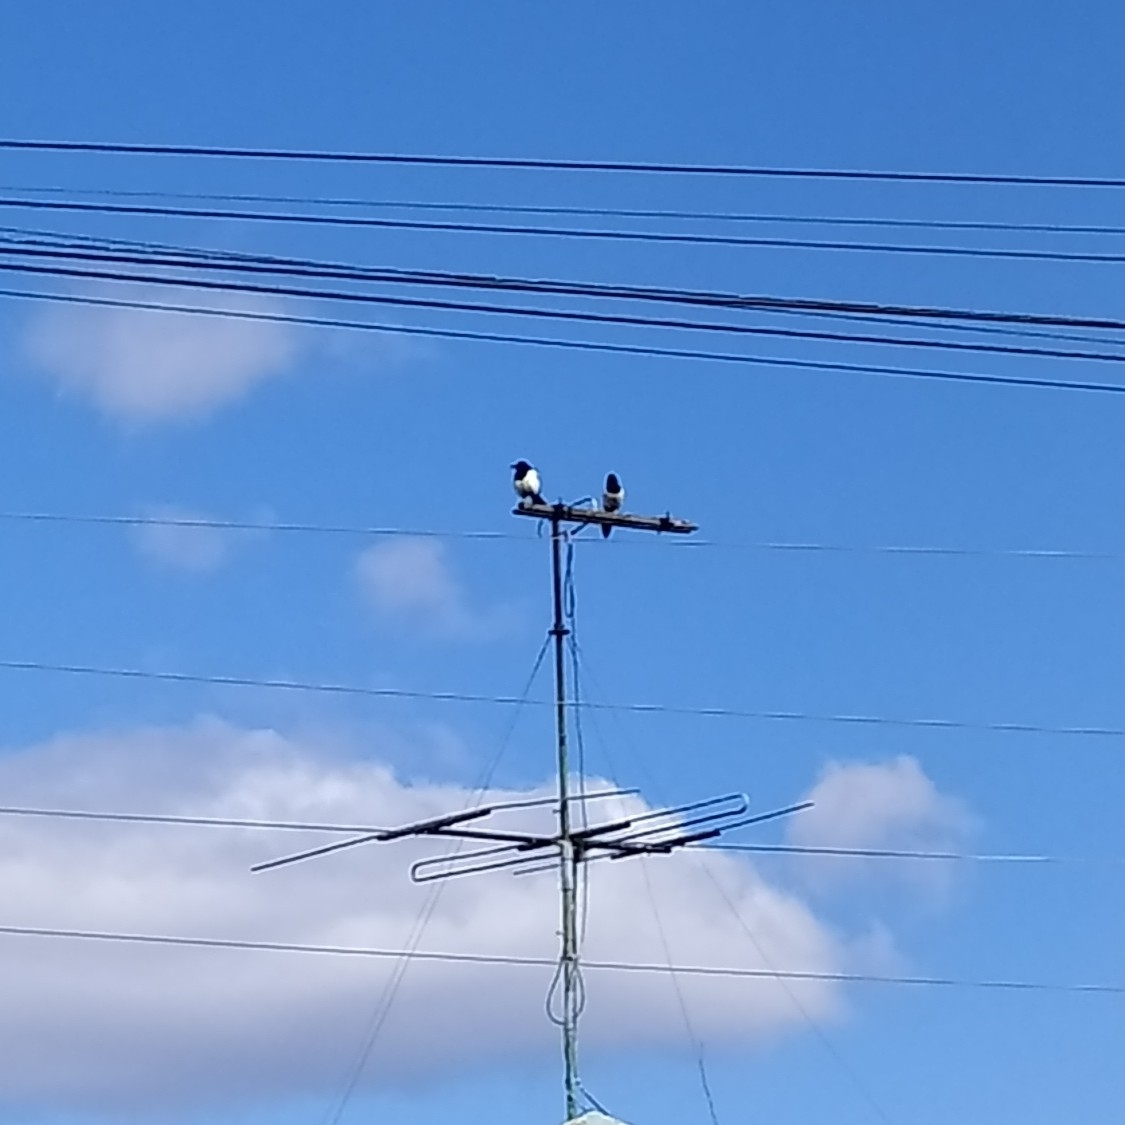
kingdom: Animalia
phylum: Chordata
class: Aves
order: Passeriformes
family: Corvidae
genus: Pica
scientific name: Pica pica
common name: Eurasian magpie
